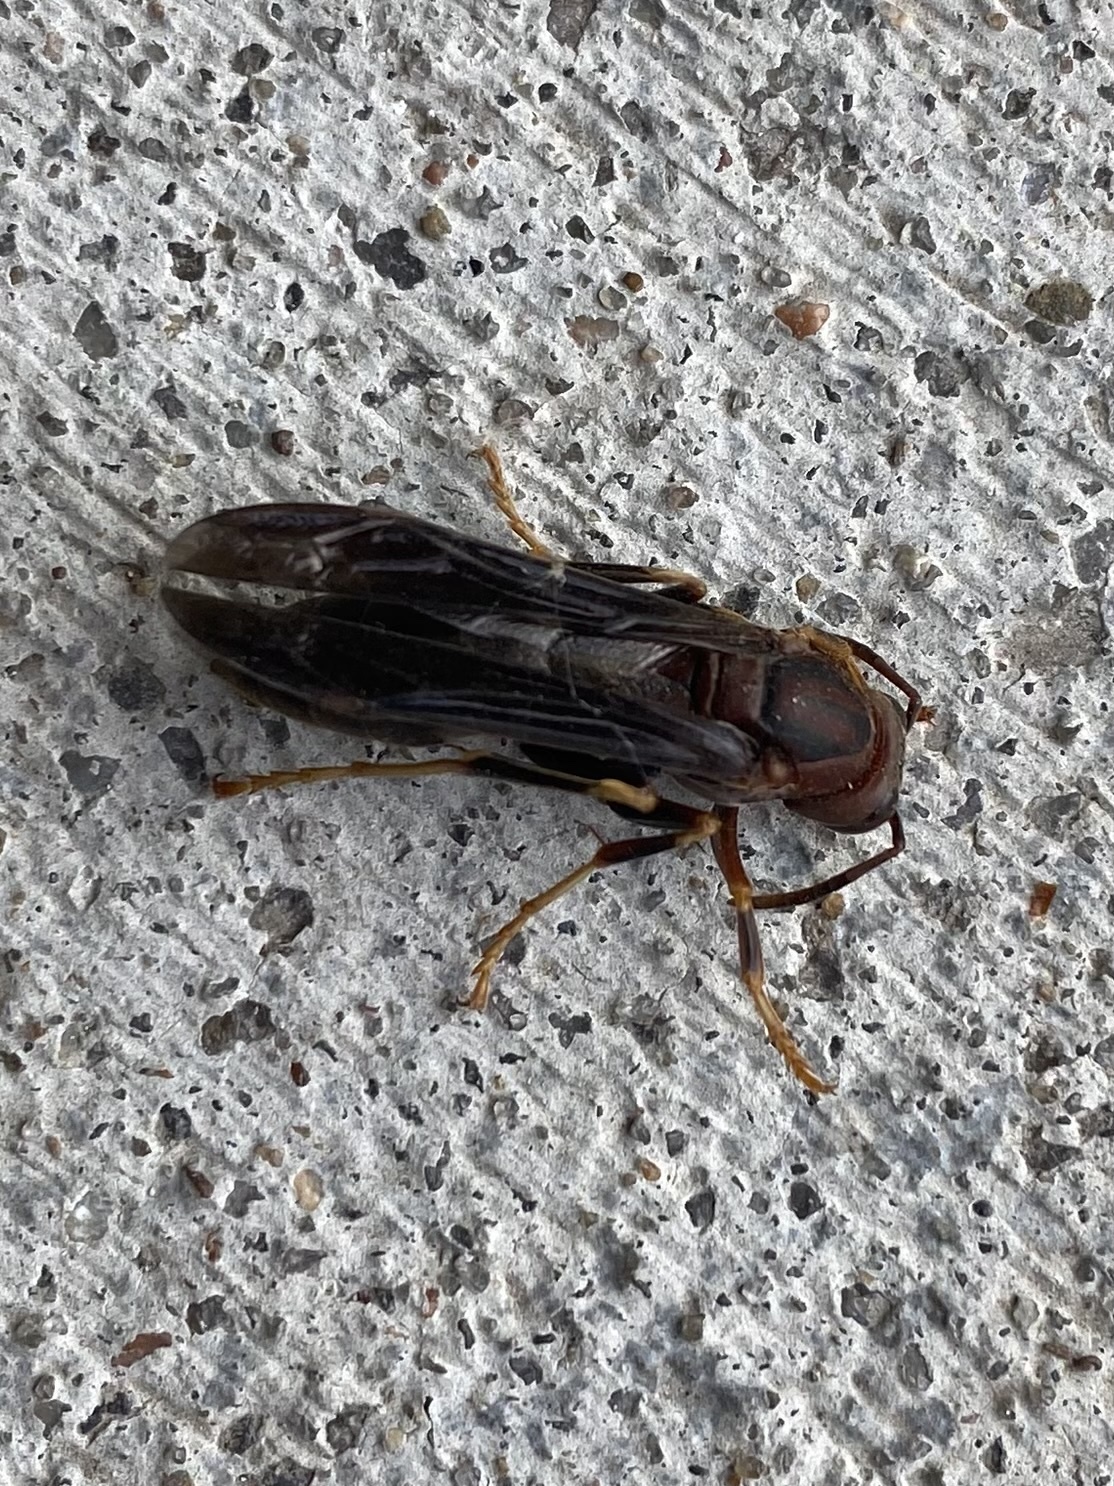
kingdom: Animalia
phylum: Arthropoda
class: Insecta
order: Hymenoptera
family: Eumenidae
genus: Polistes
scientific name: Polistes metricus
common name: Metric paper wasp
